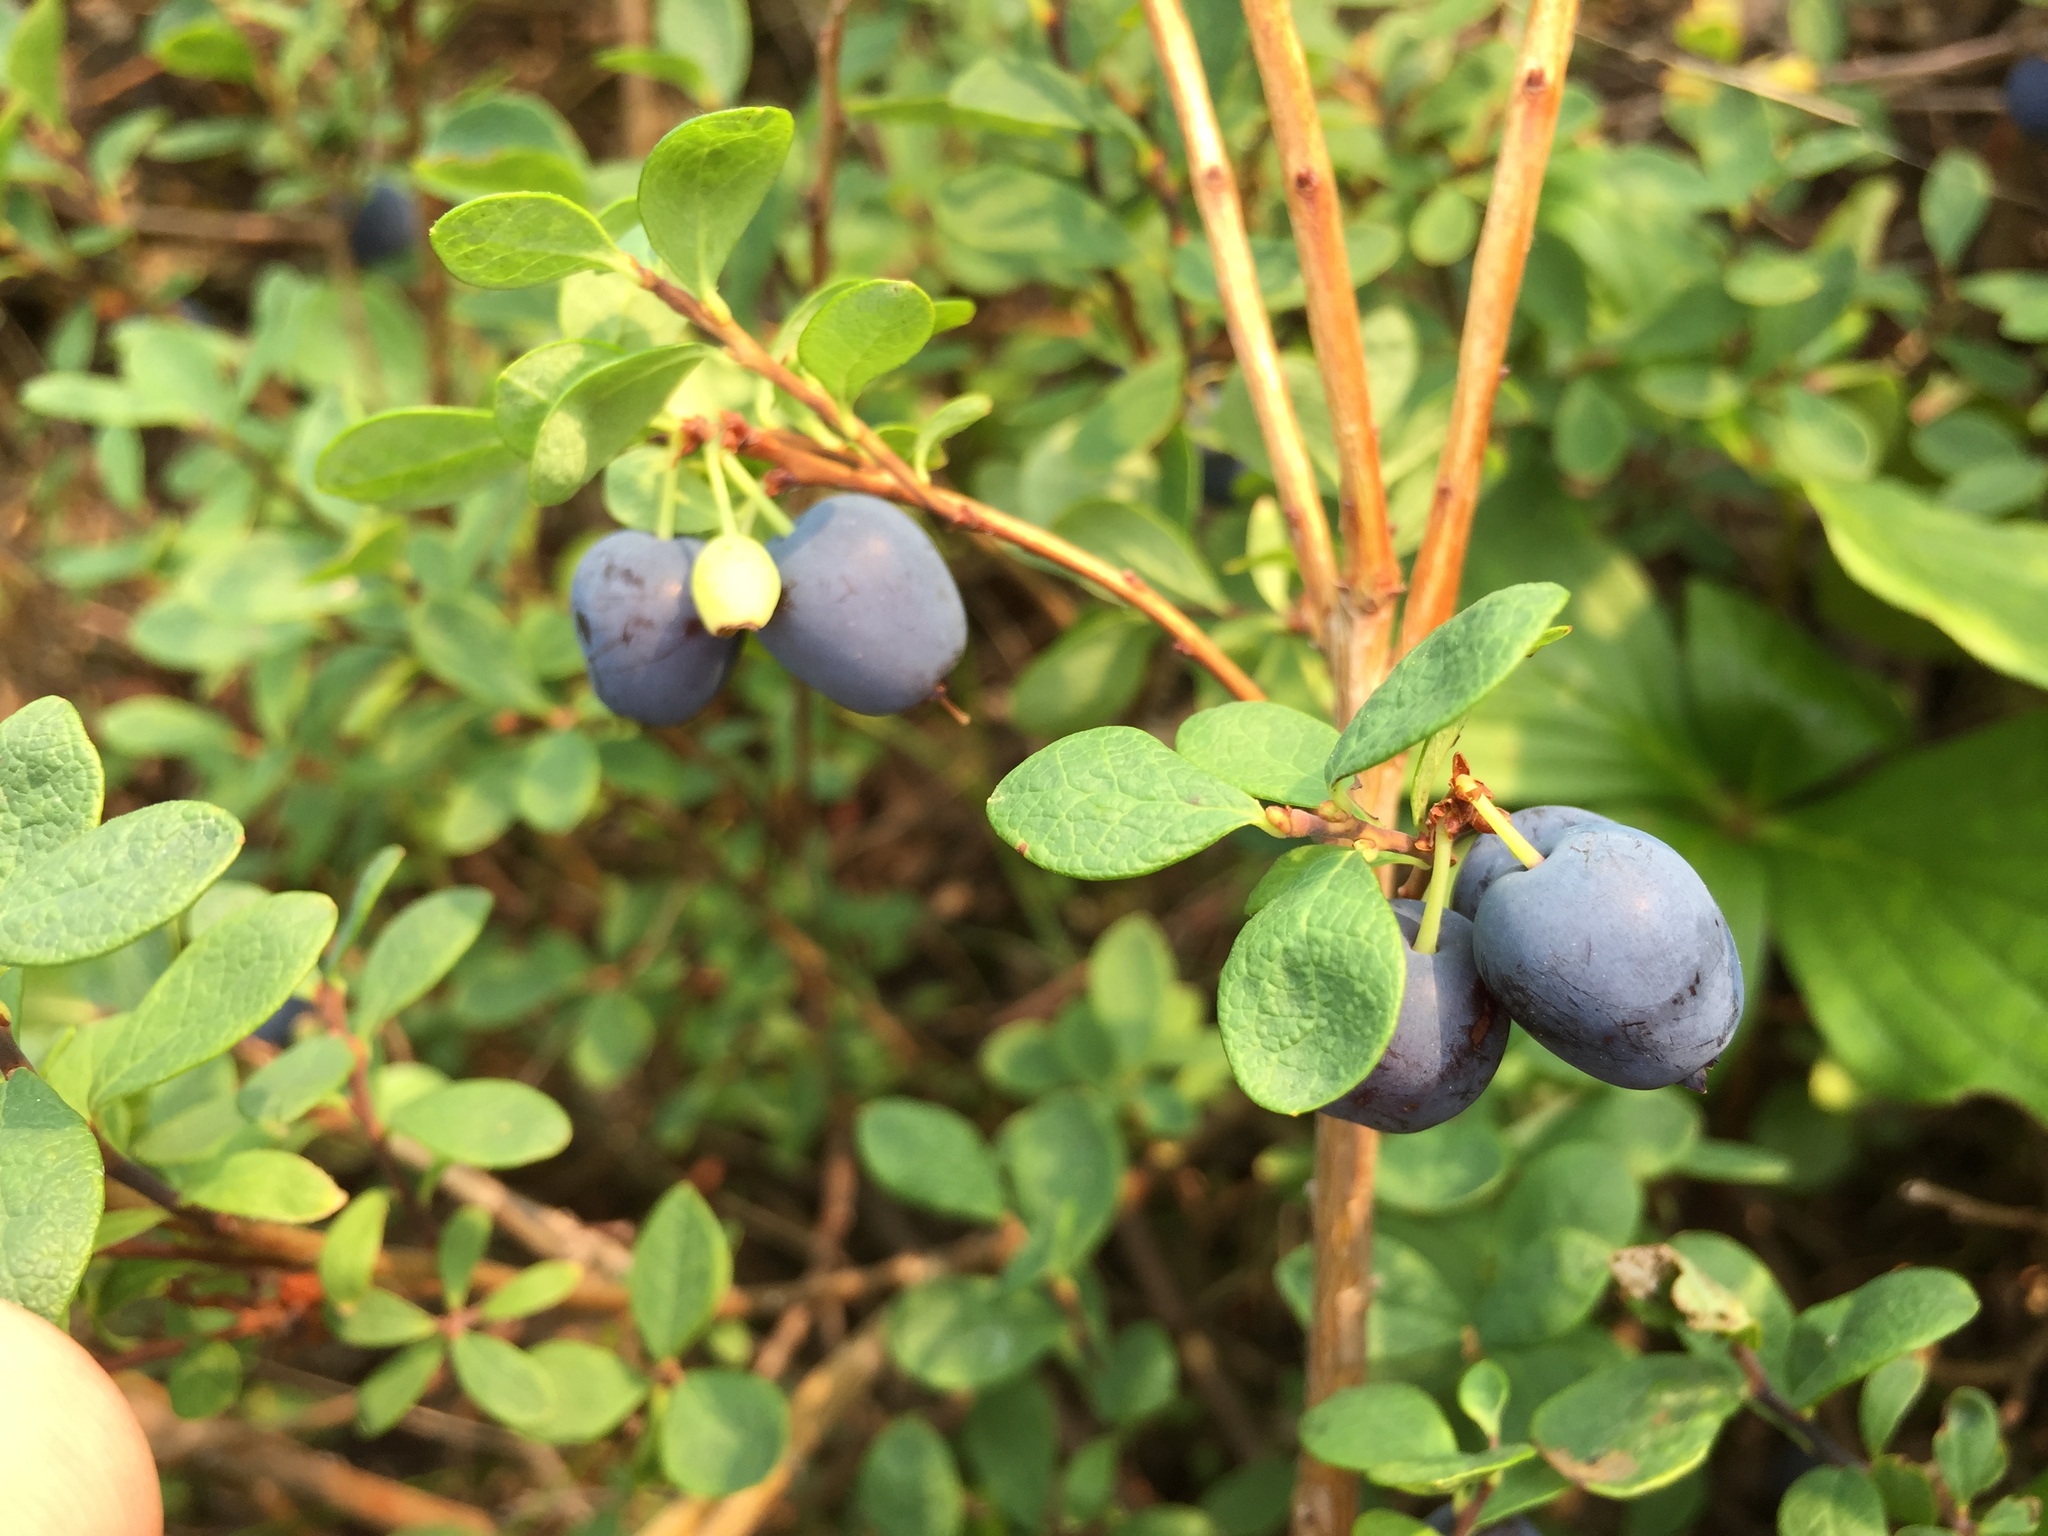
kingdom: Plantae
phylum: Tracheophyta
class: Magnoliopsida
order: Ericales
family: Ericaceae
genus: Vaccinium
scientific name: Vaccinium uliginosum
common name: Bog bilberry
